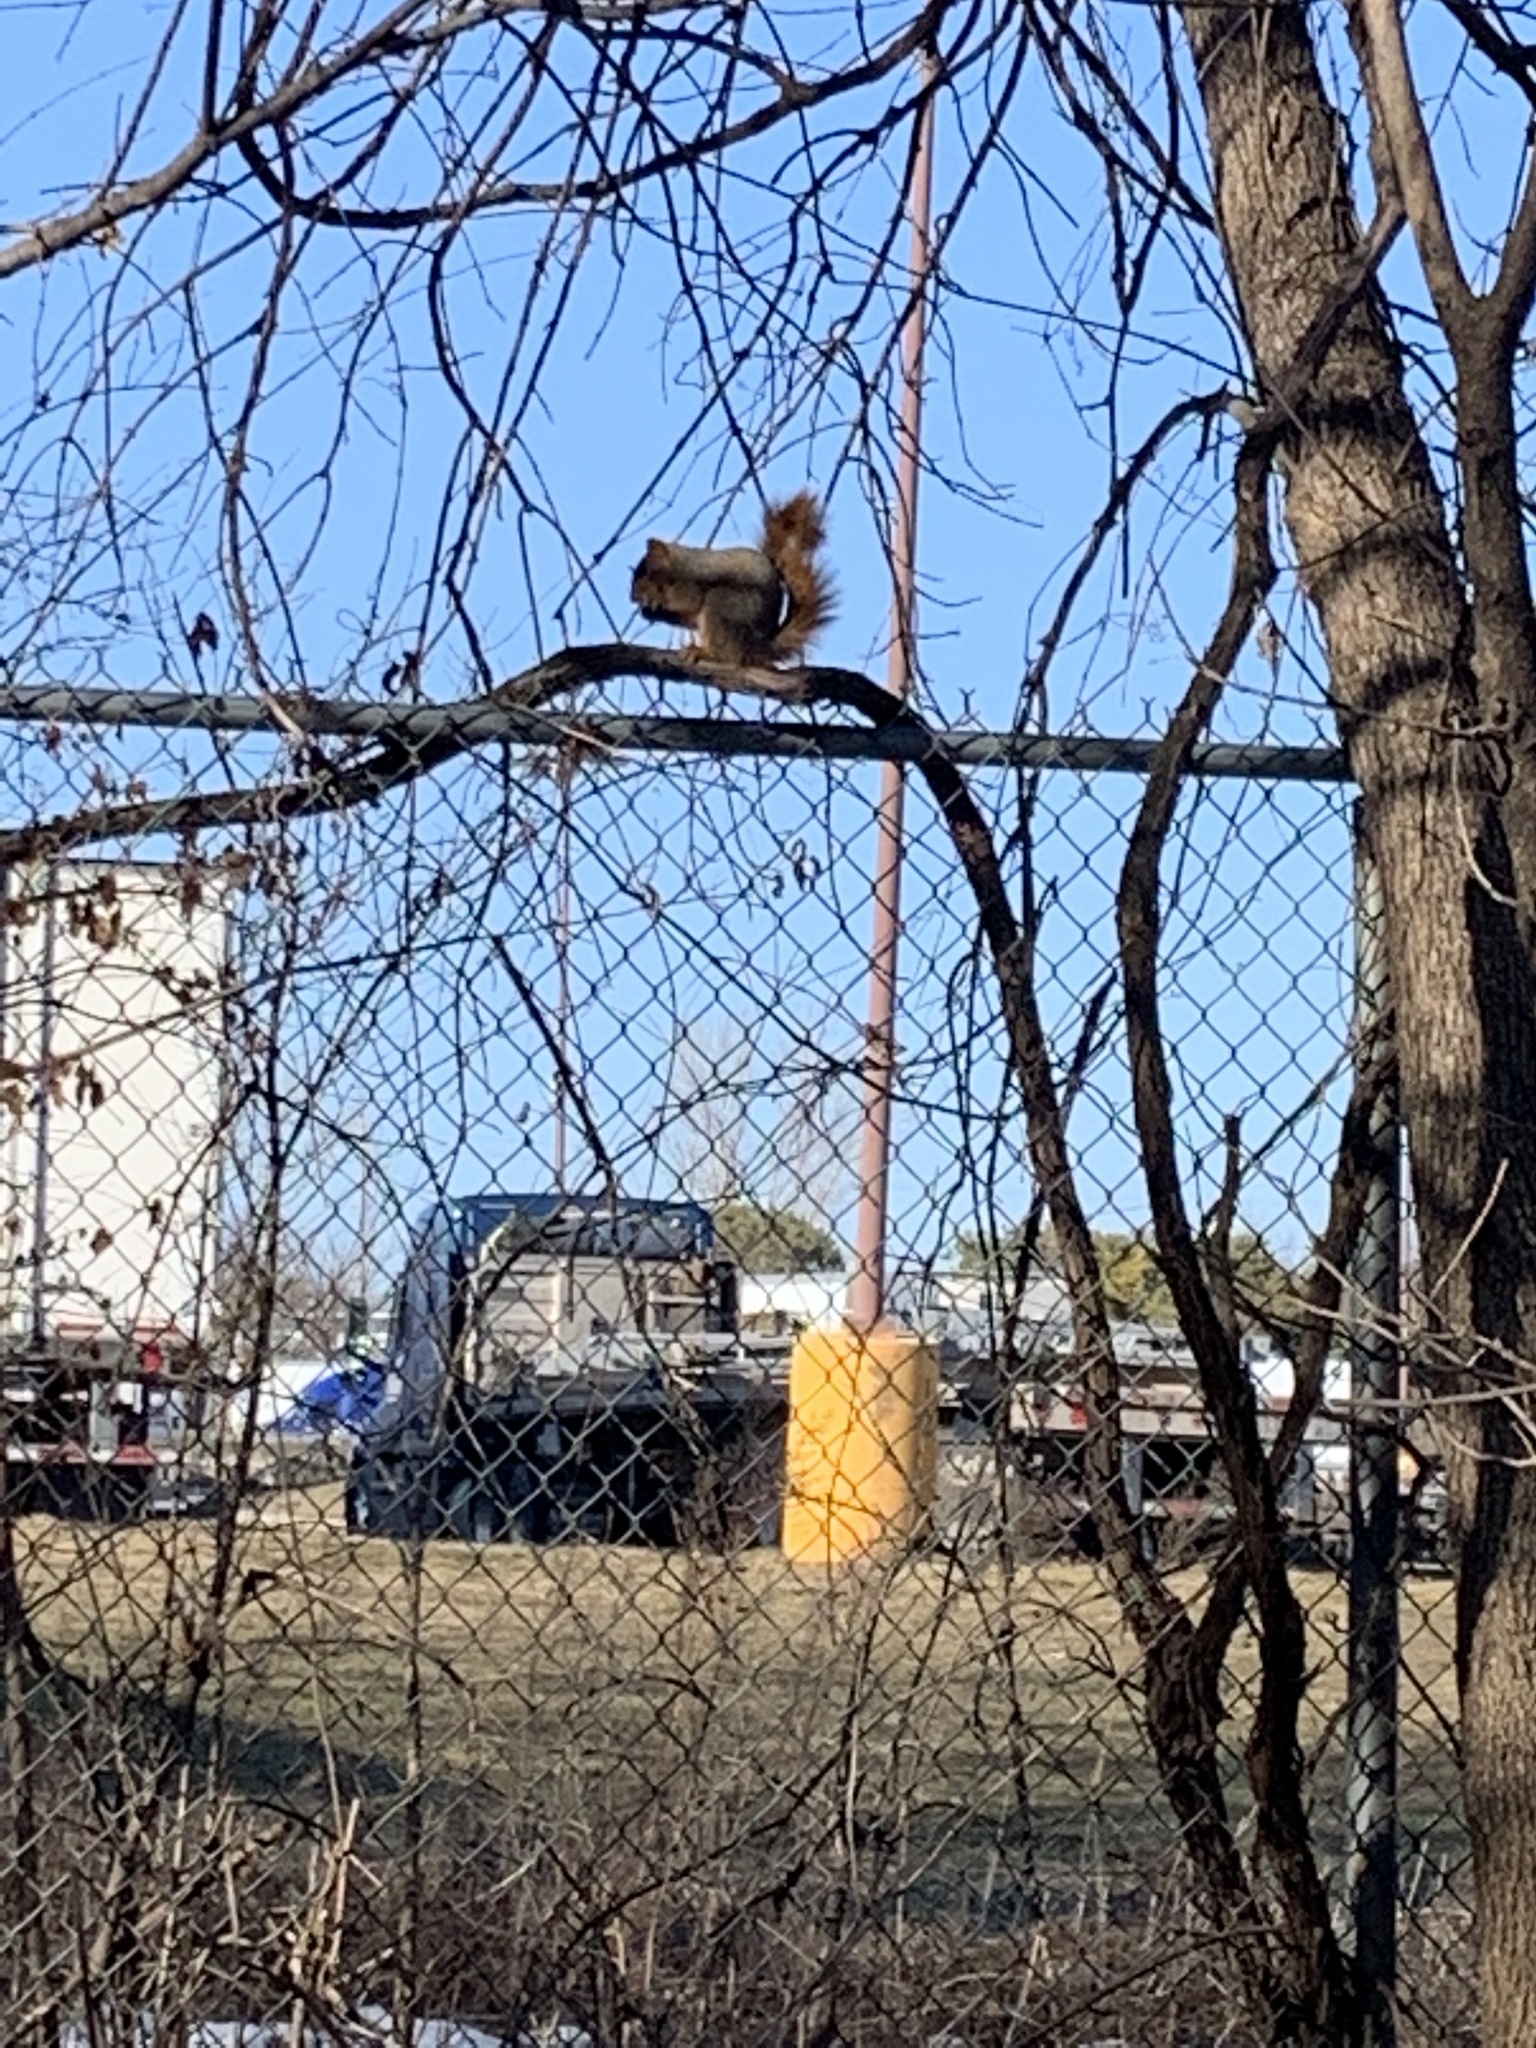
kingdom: Animalia
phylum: Chordata
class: Mammalia
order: Rodentia
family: Sciuridae
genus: Sciurus
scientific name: Sciurus niger
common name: Fox squirrel
